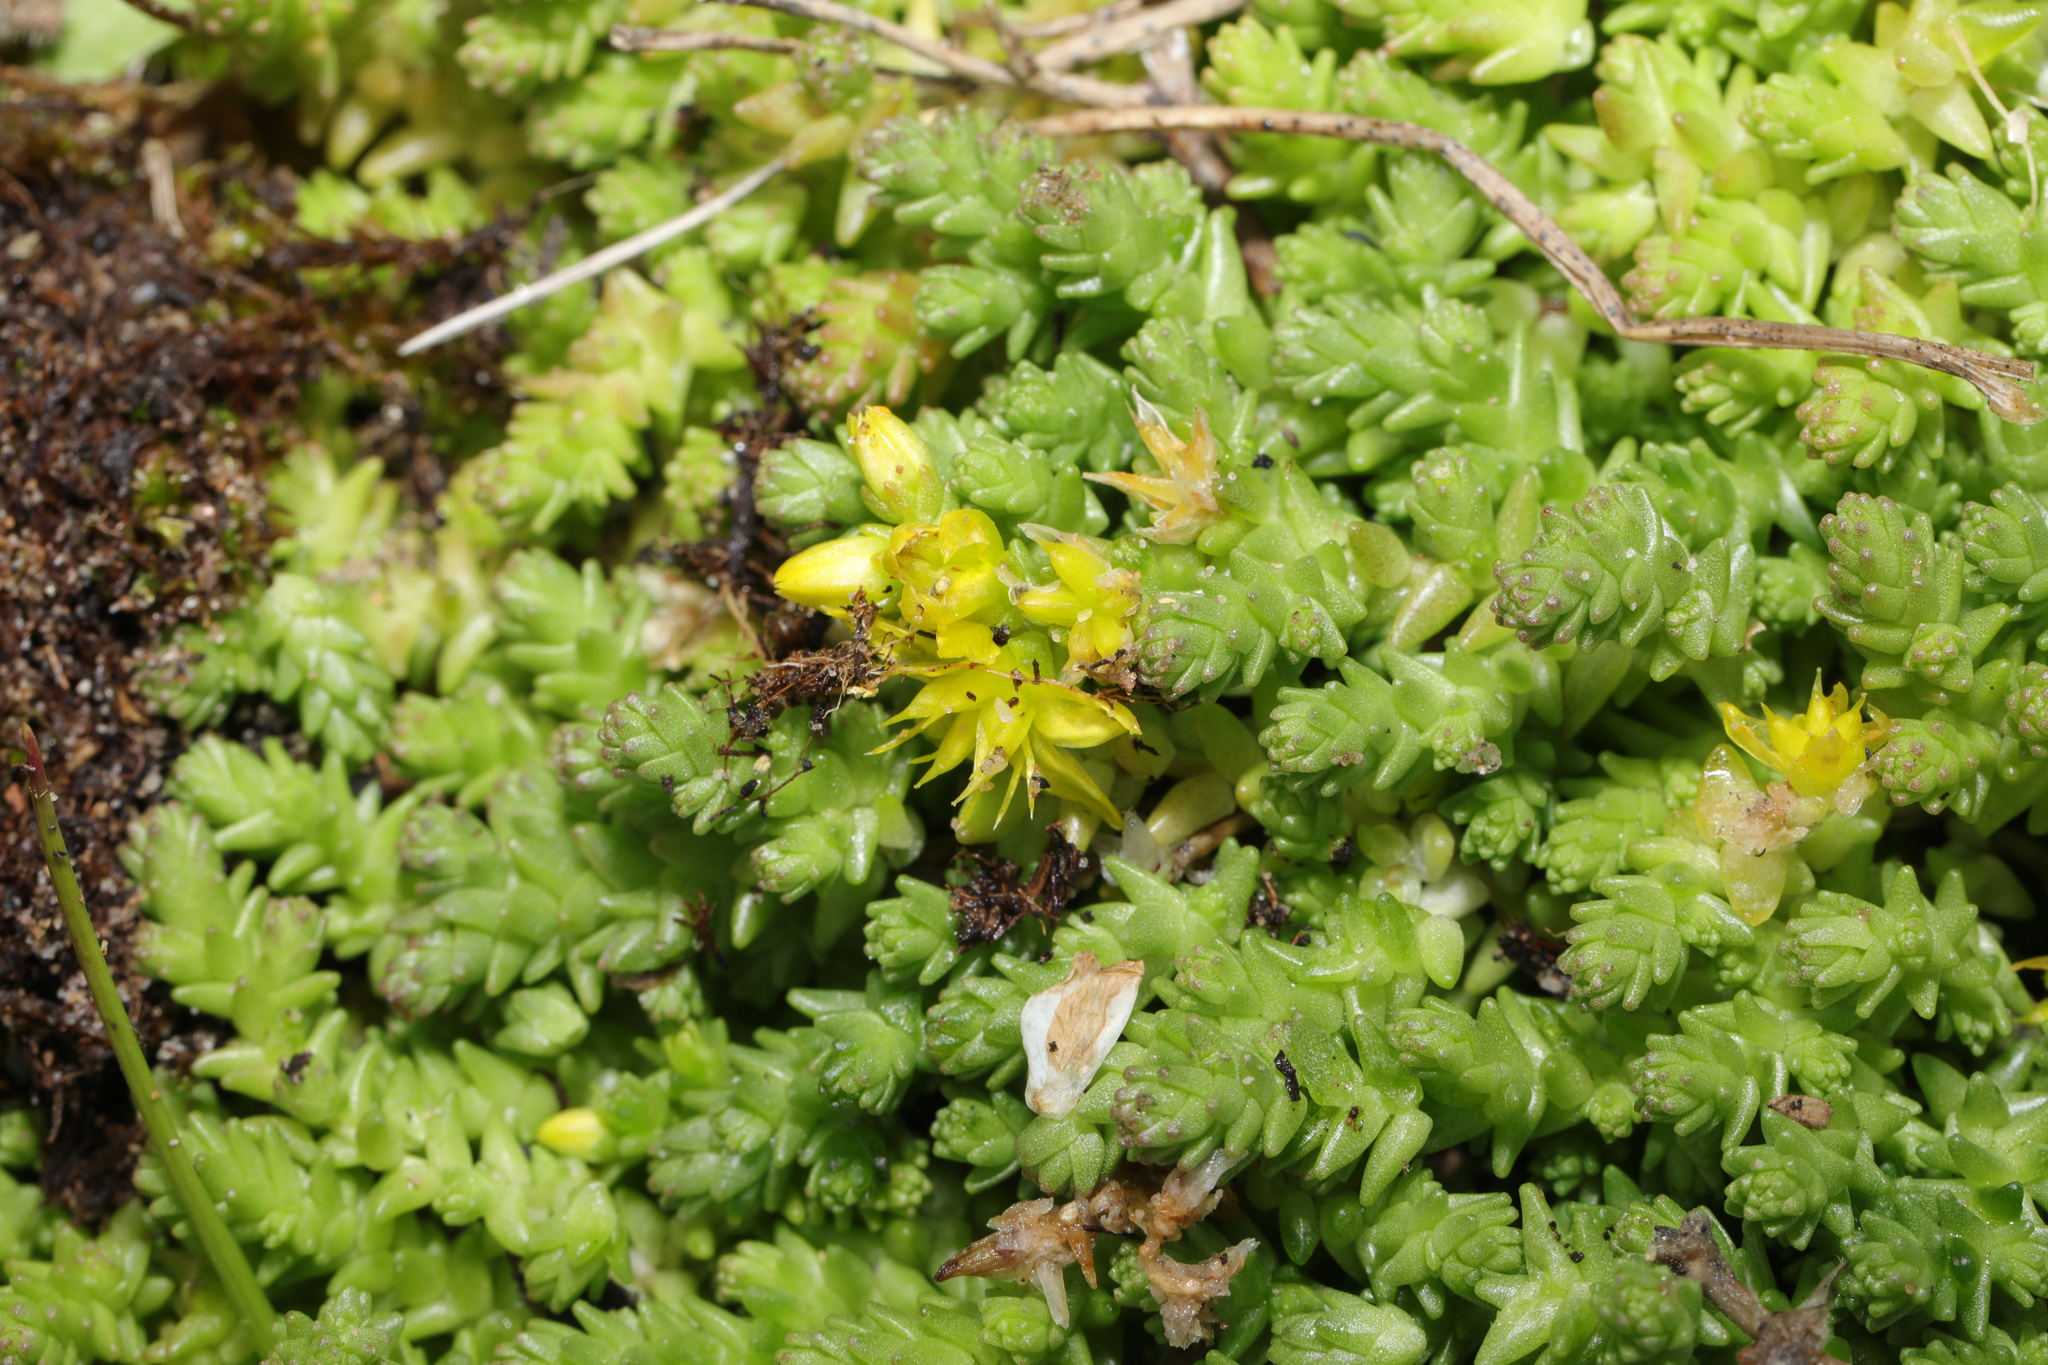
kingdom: Plantae
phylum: Tracheophyta
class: Magnoliopsida
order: Saxifragales
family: Crassulaceae
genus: Sedum
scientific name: Sedum acre
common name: Biting stonecrop
